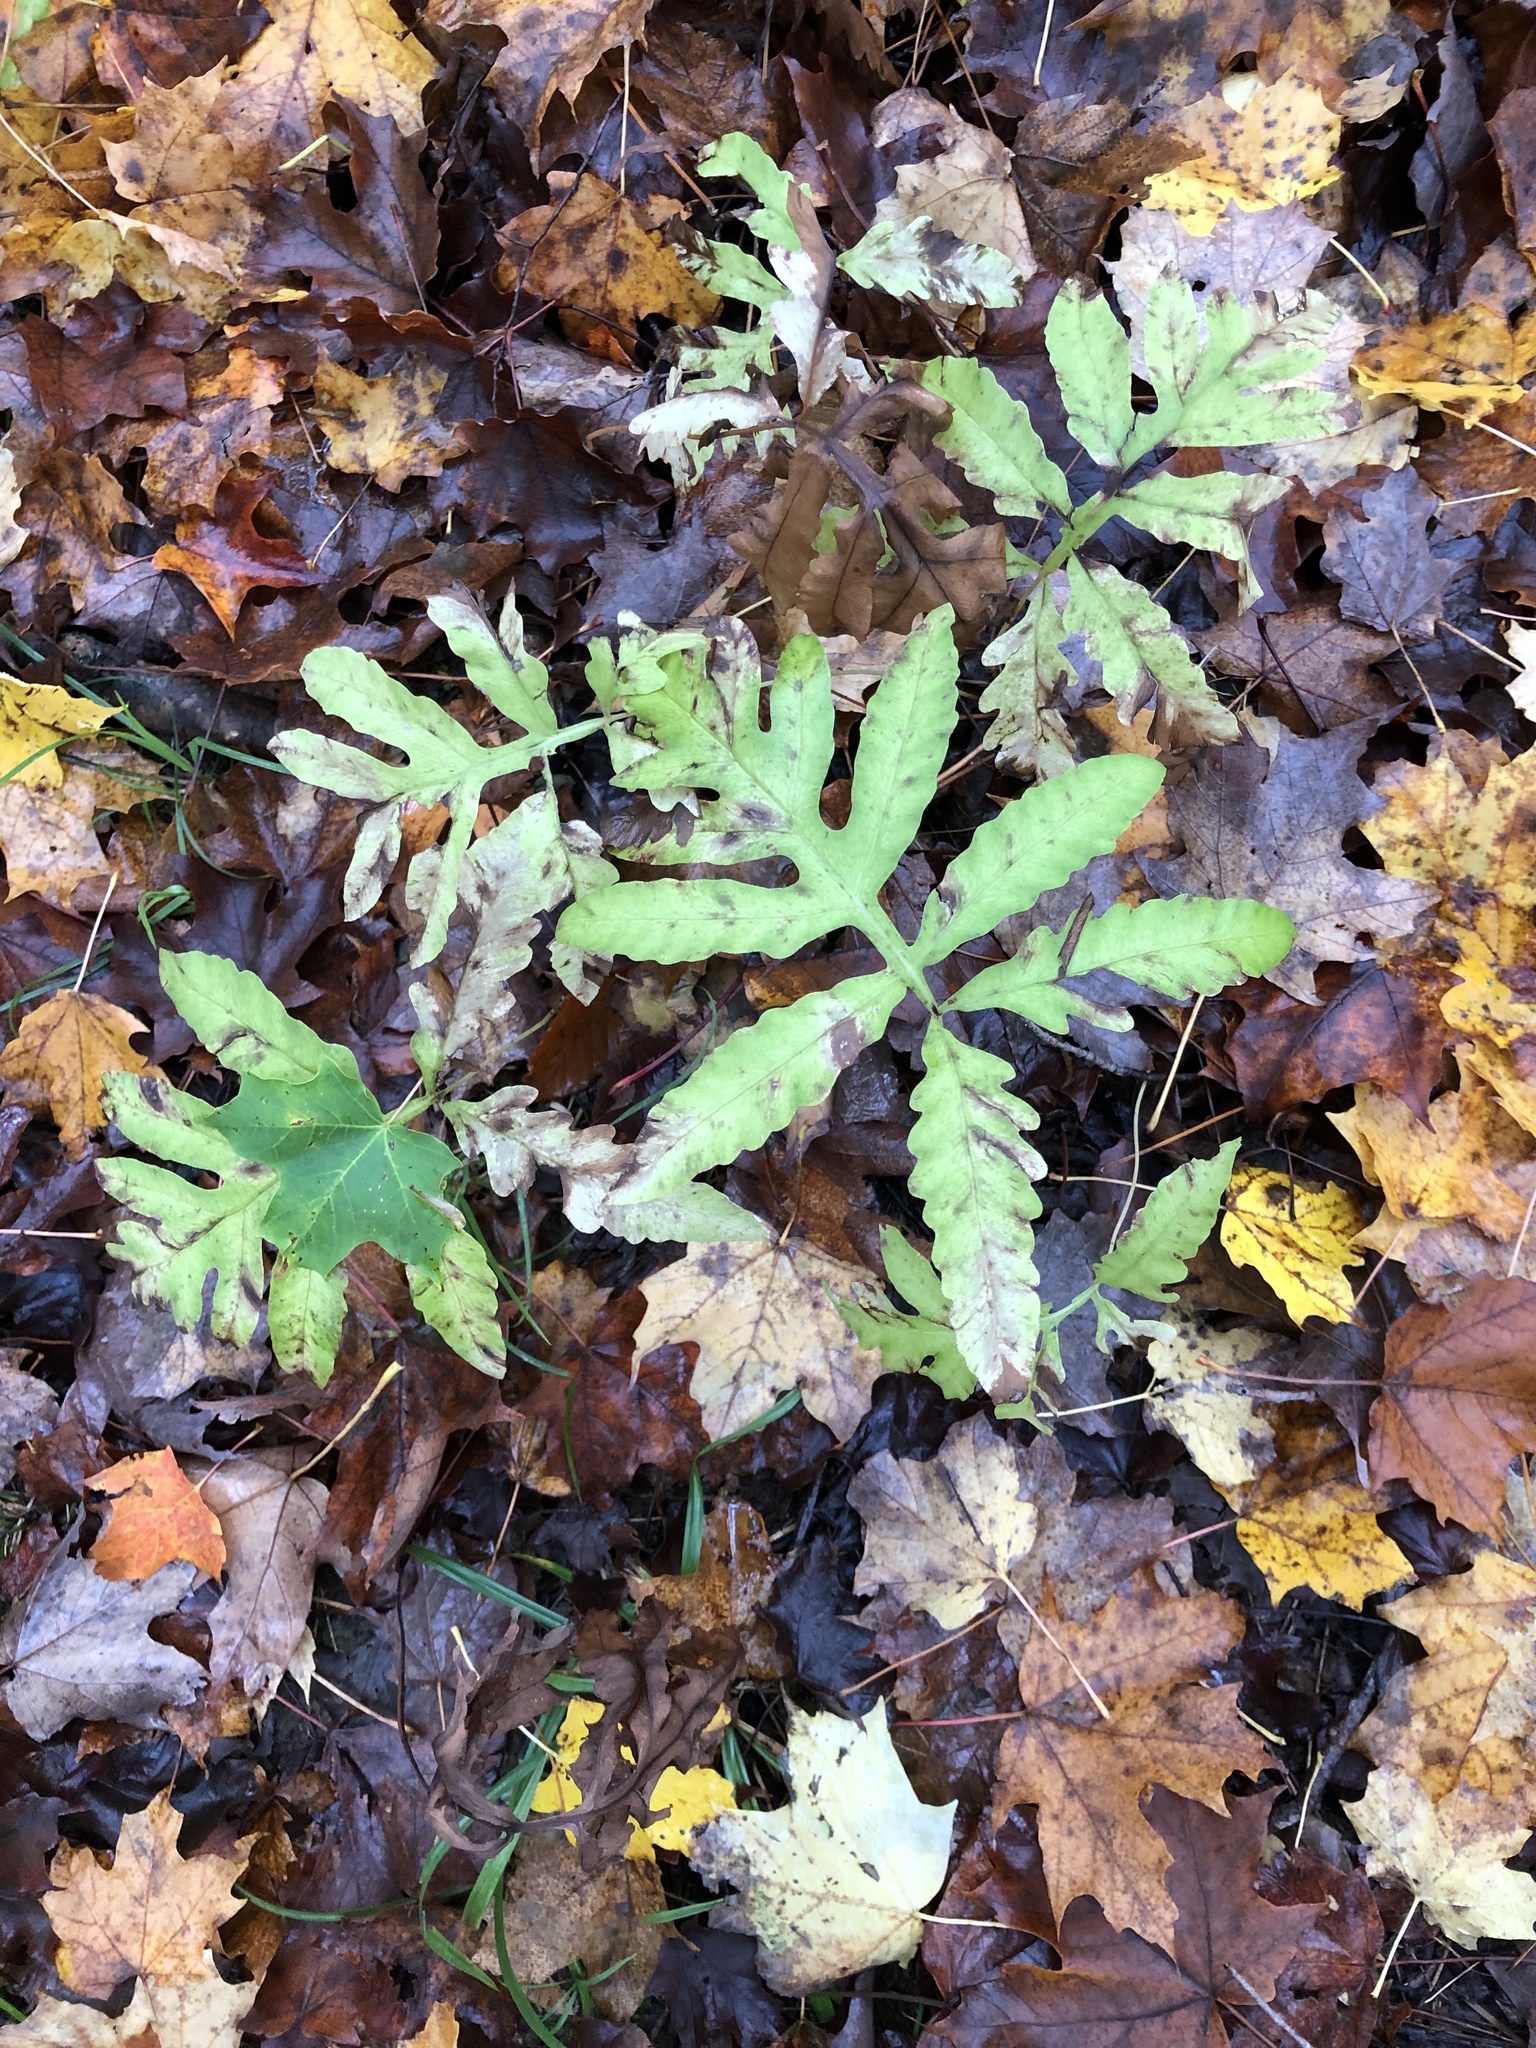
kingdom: Plantae
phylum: Tracheophyta
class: Polypodiopsida
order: Polypodiales
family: Onocleaceae
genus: Onoclea
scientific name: Onoclea sensibilis
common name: Sensitive fern
